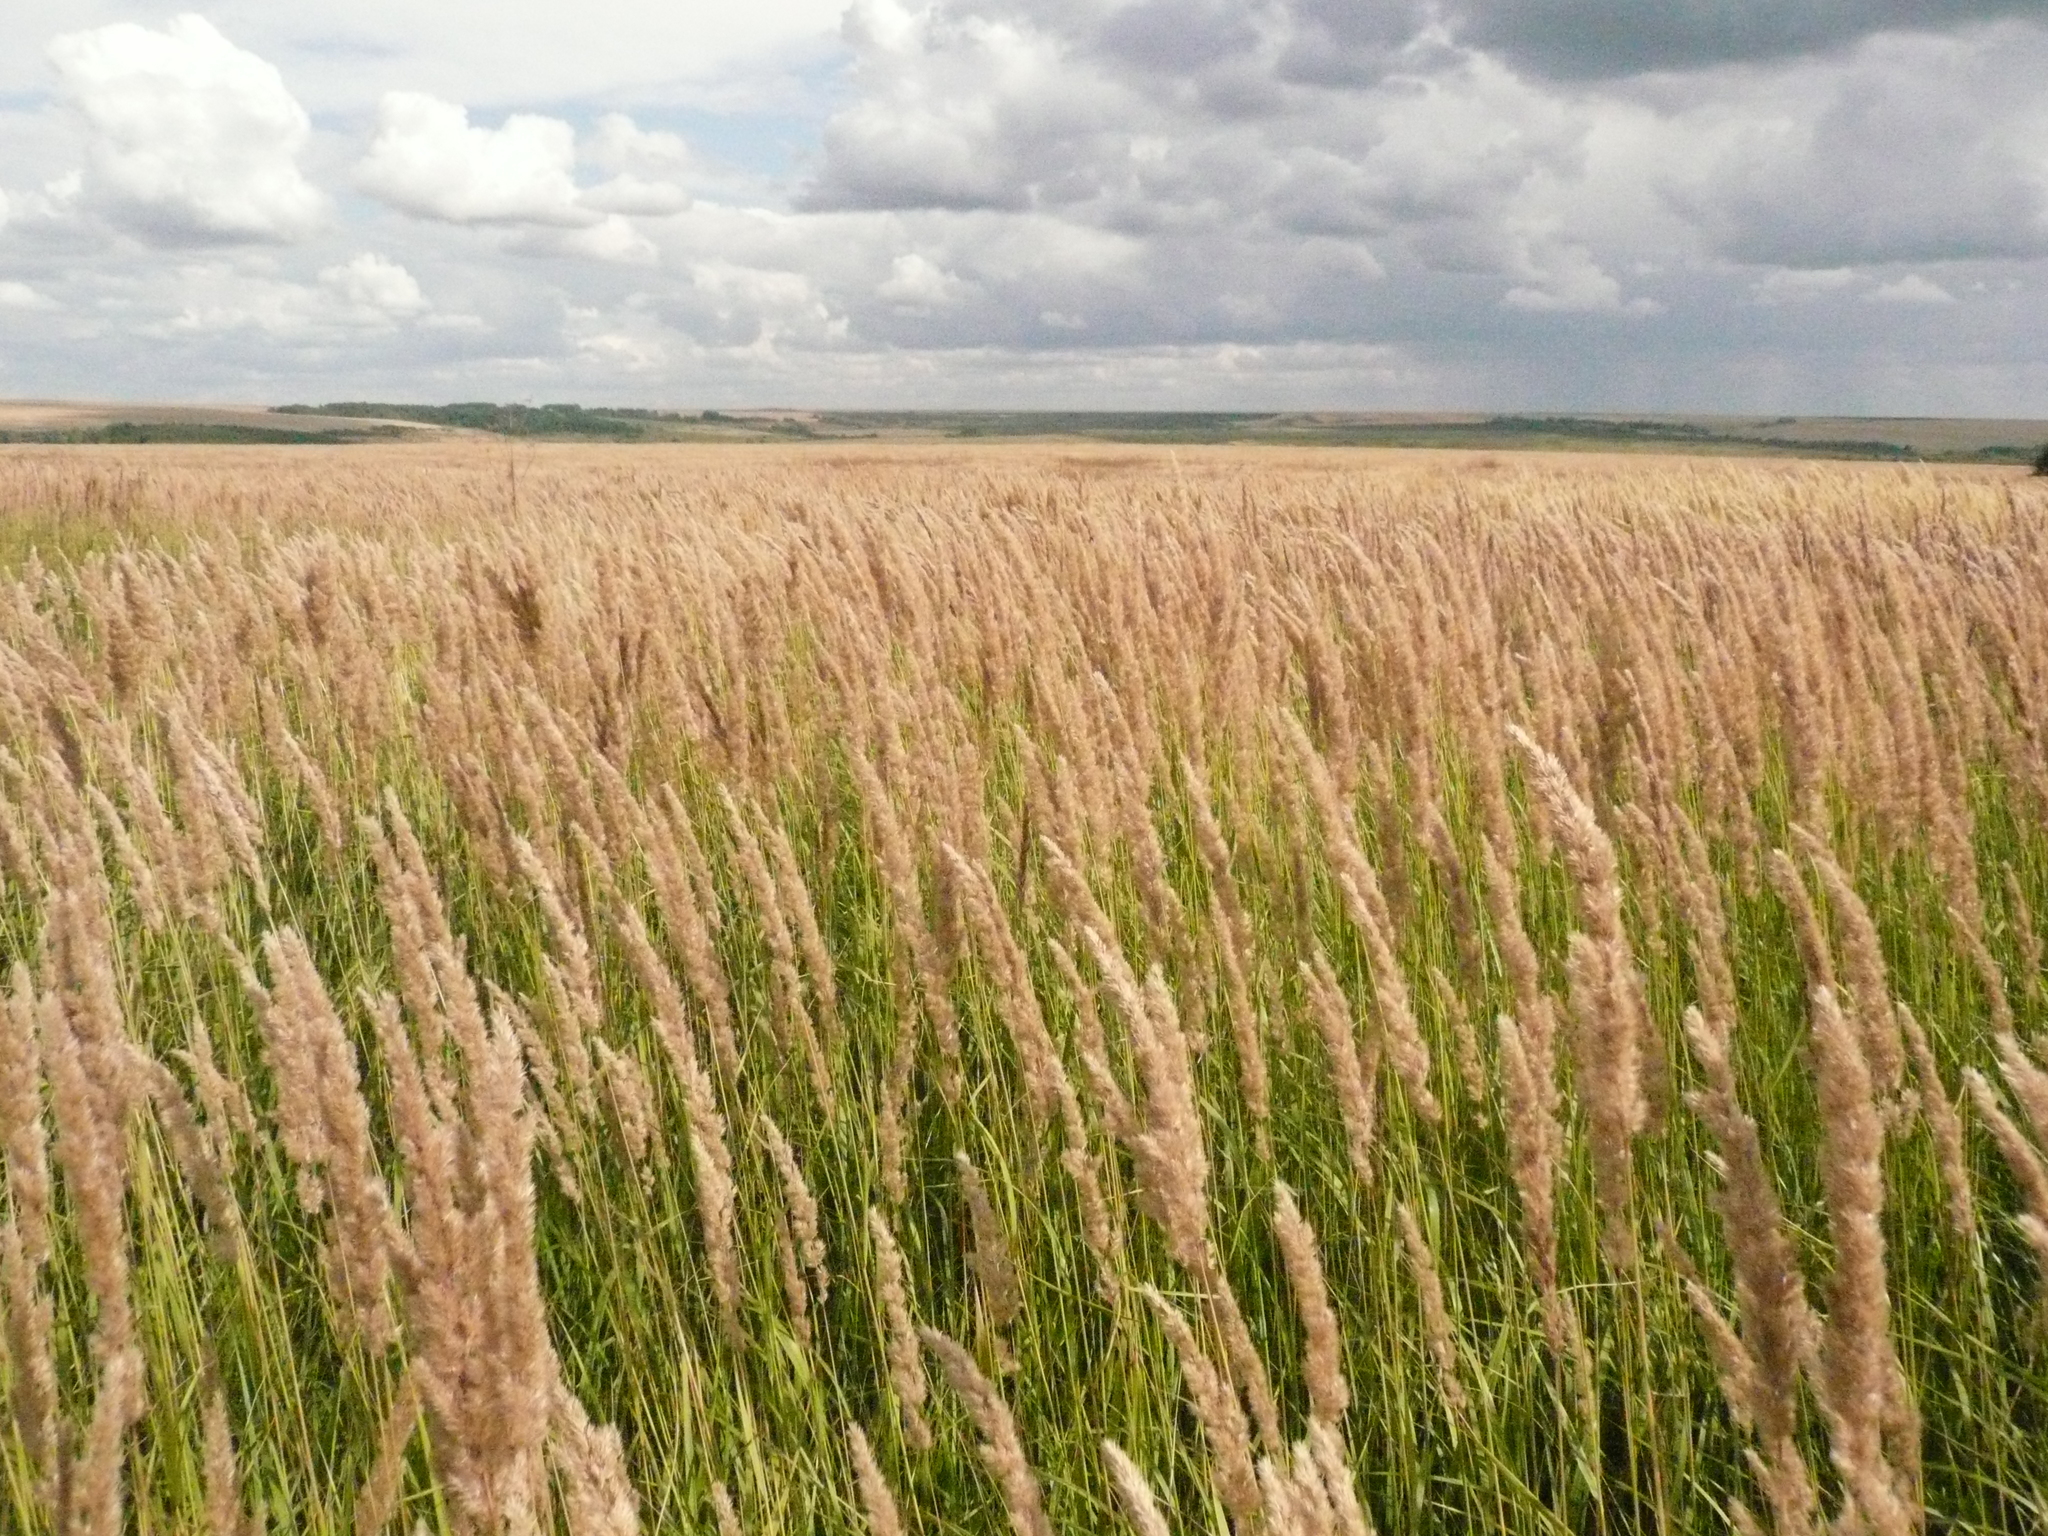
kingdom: Plantae
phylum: Tracheophyta
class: Liliopsida
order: Poales
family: Poaceae
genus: Calamagrostis
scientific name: Calamagrostis epigejos
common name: Wood small-reed
